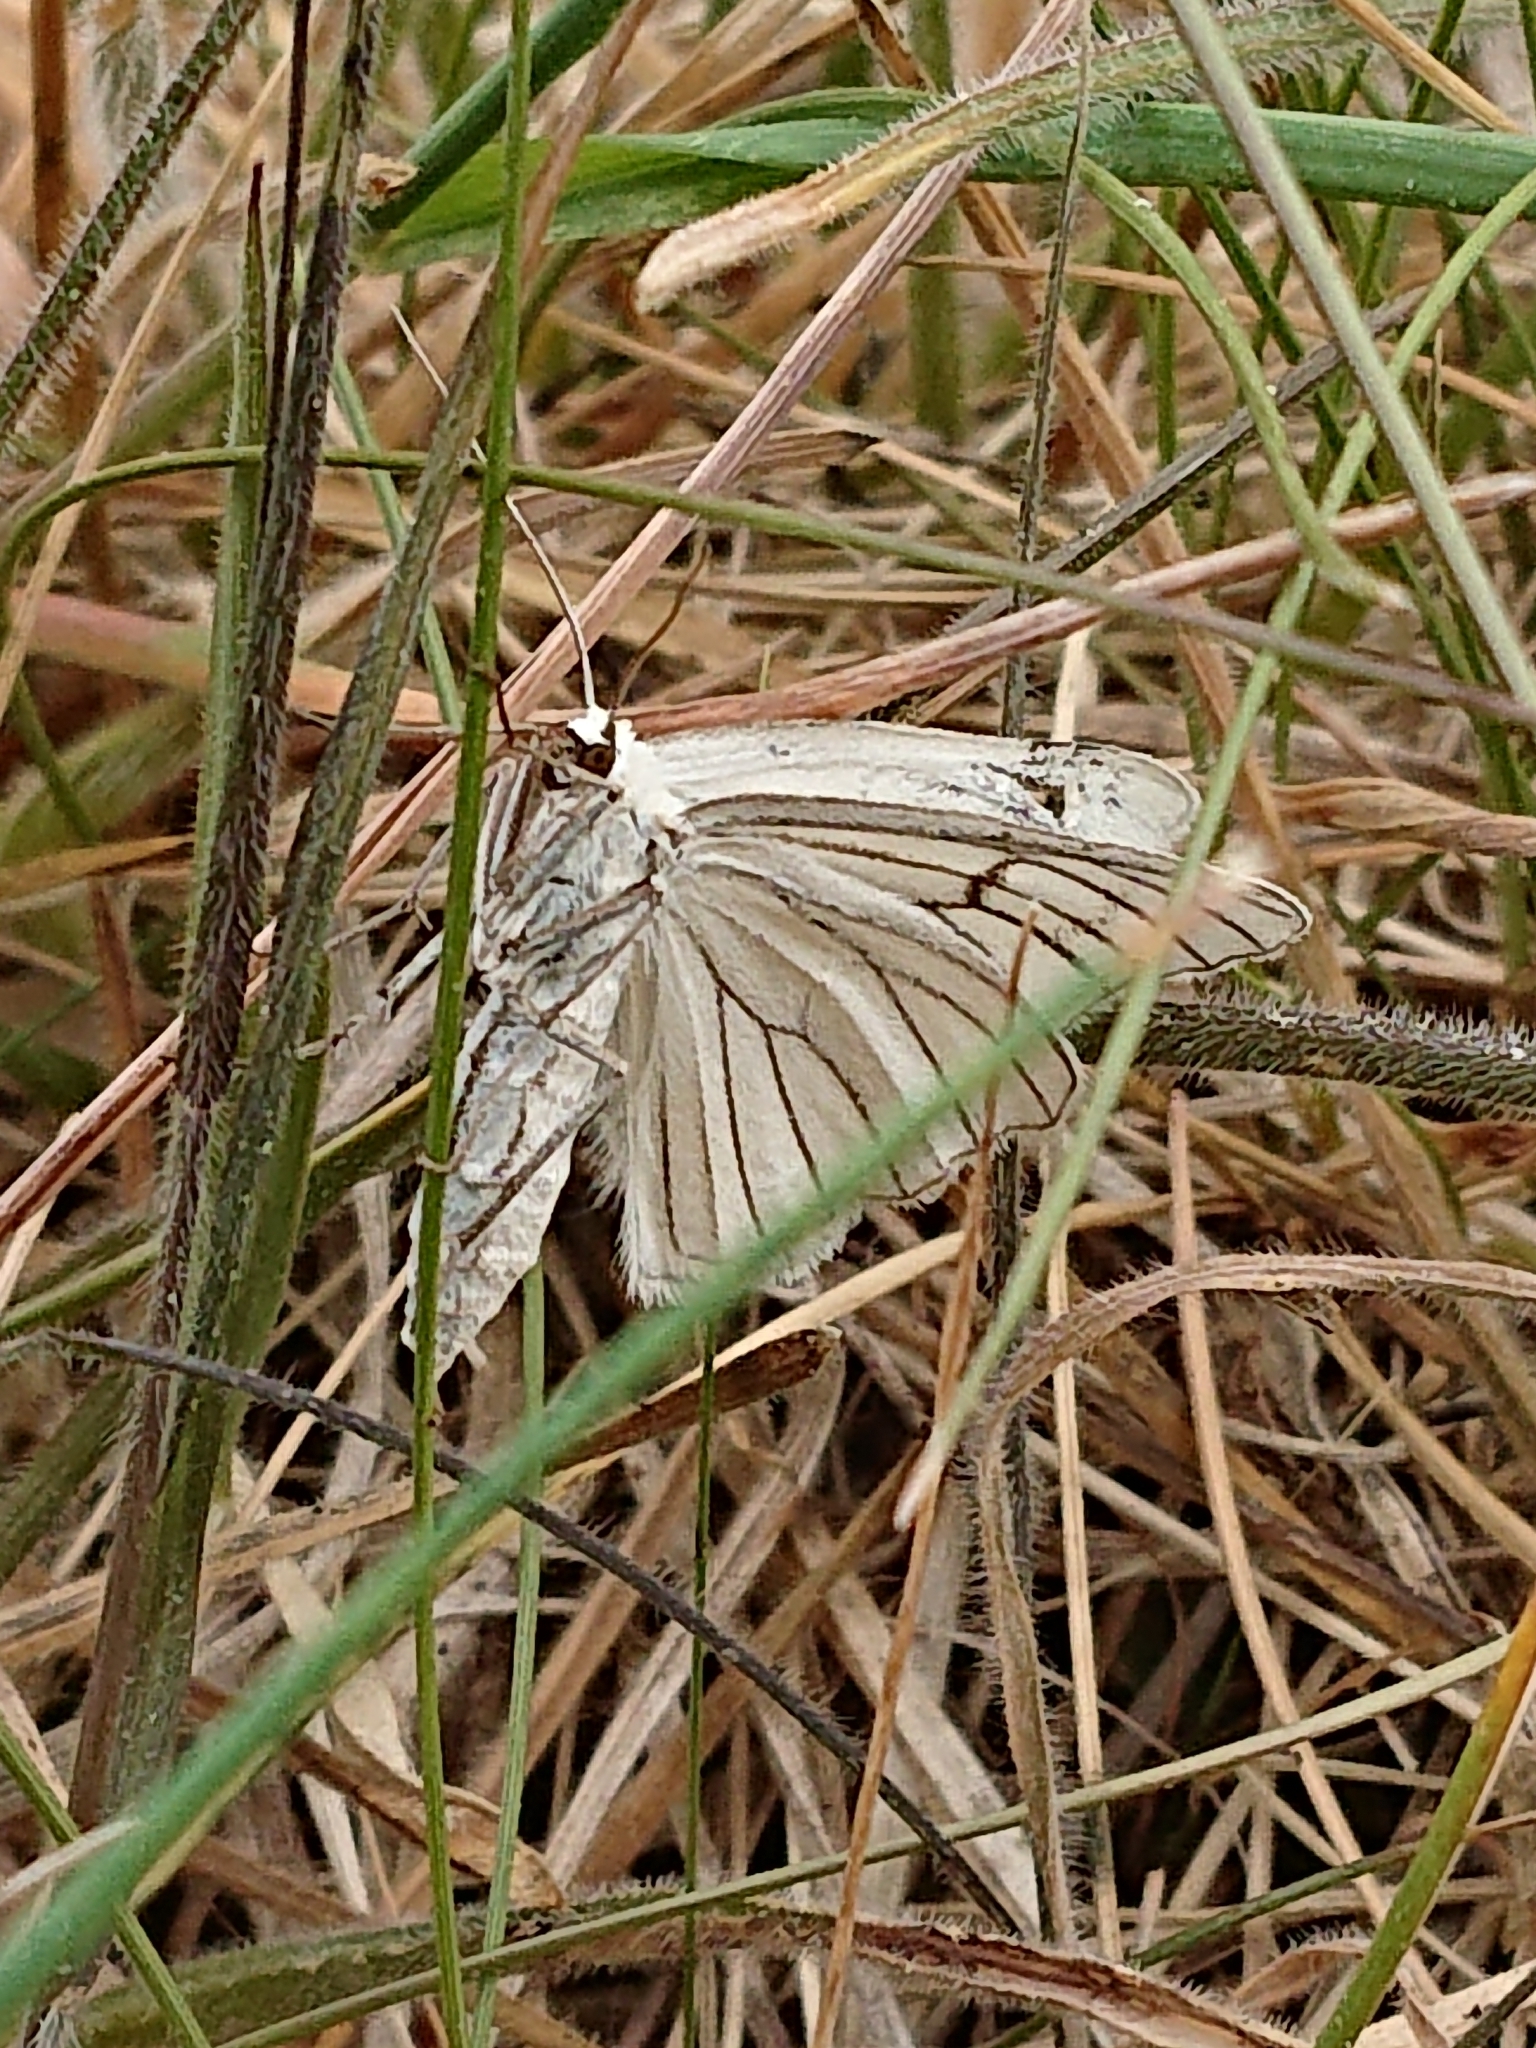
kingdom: Animalia
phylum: Arthropoda
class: Insecta
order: Lepidoptera
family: Geometridae
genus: Siona
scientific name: Siona lineata
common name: Black-veined moth
